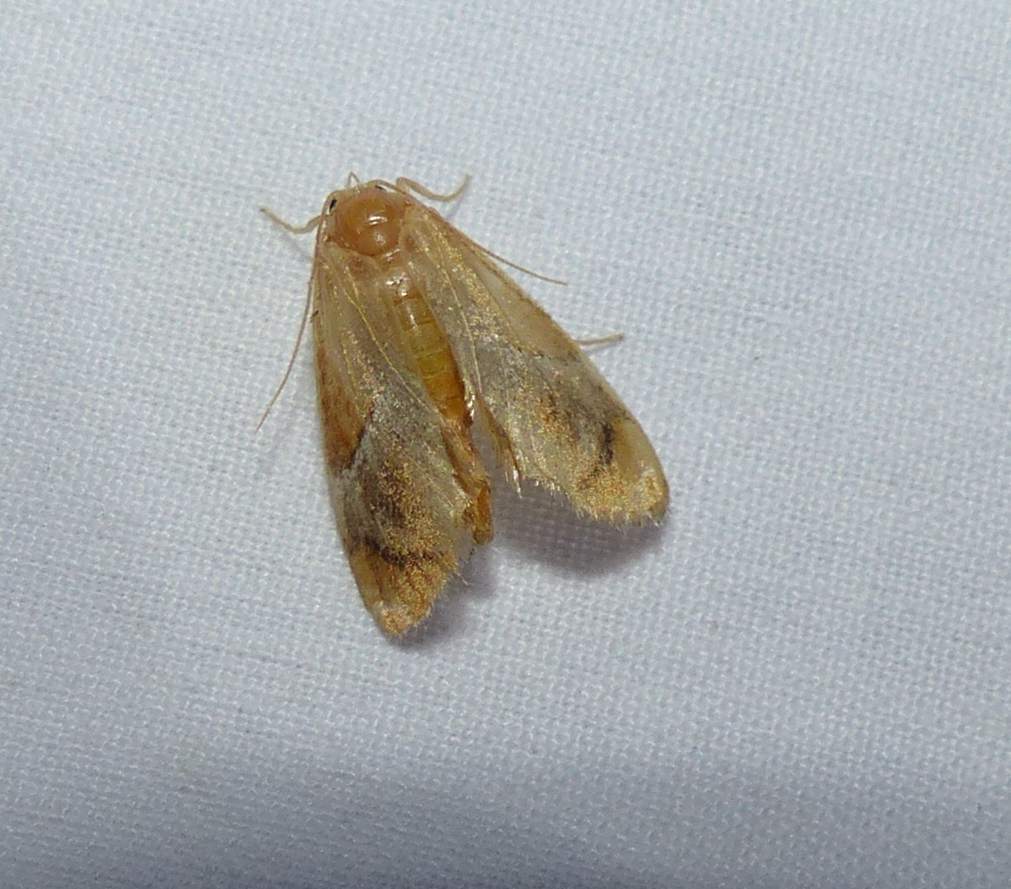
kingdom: Animalia
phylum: Arthropoda
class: Insecta
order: Lepidoptera
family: Limacodidae
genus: Lithacodes
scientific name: Lithacodes fasciola
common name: Yellow-shouldered slug moth
